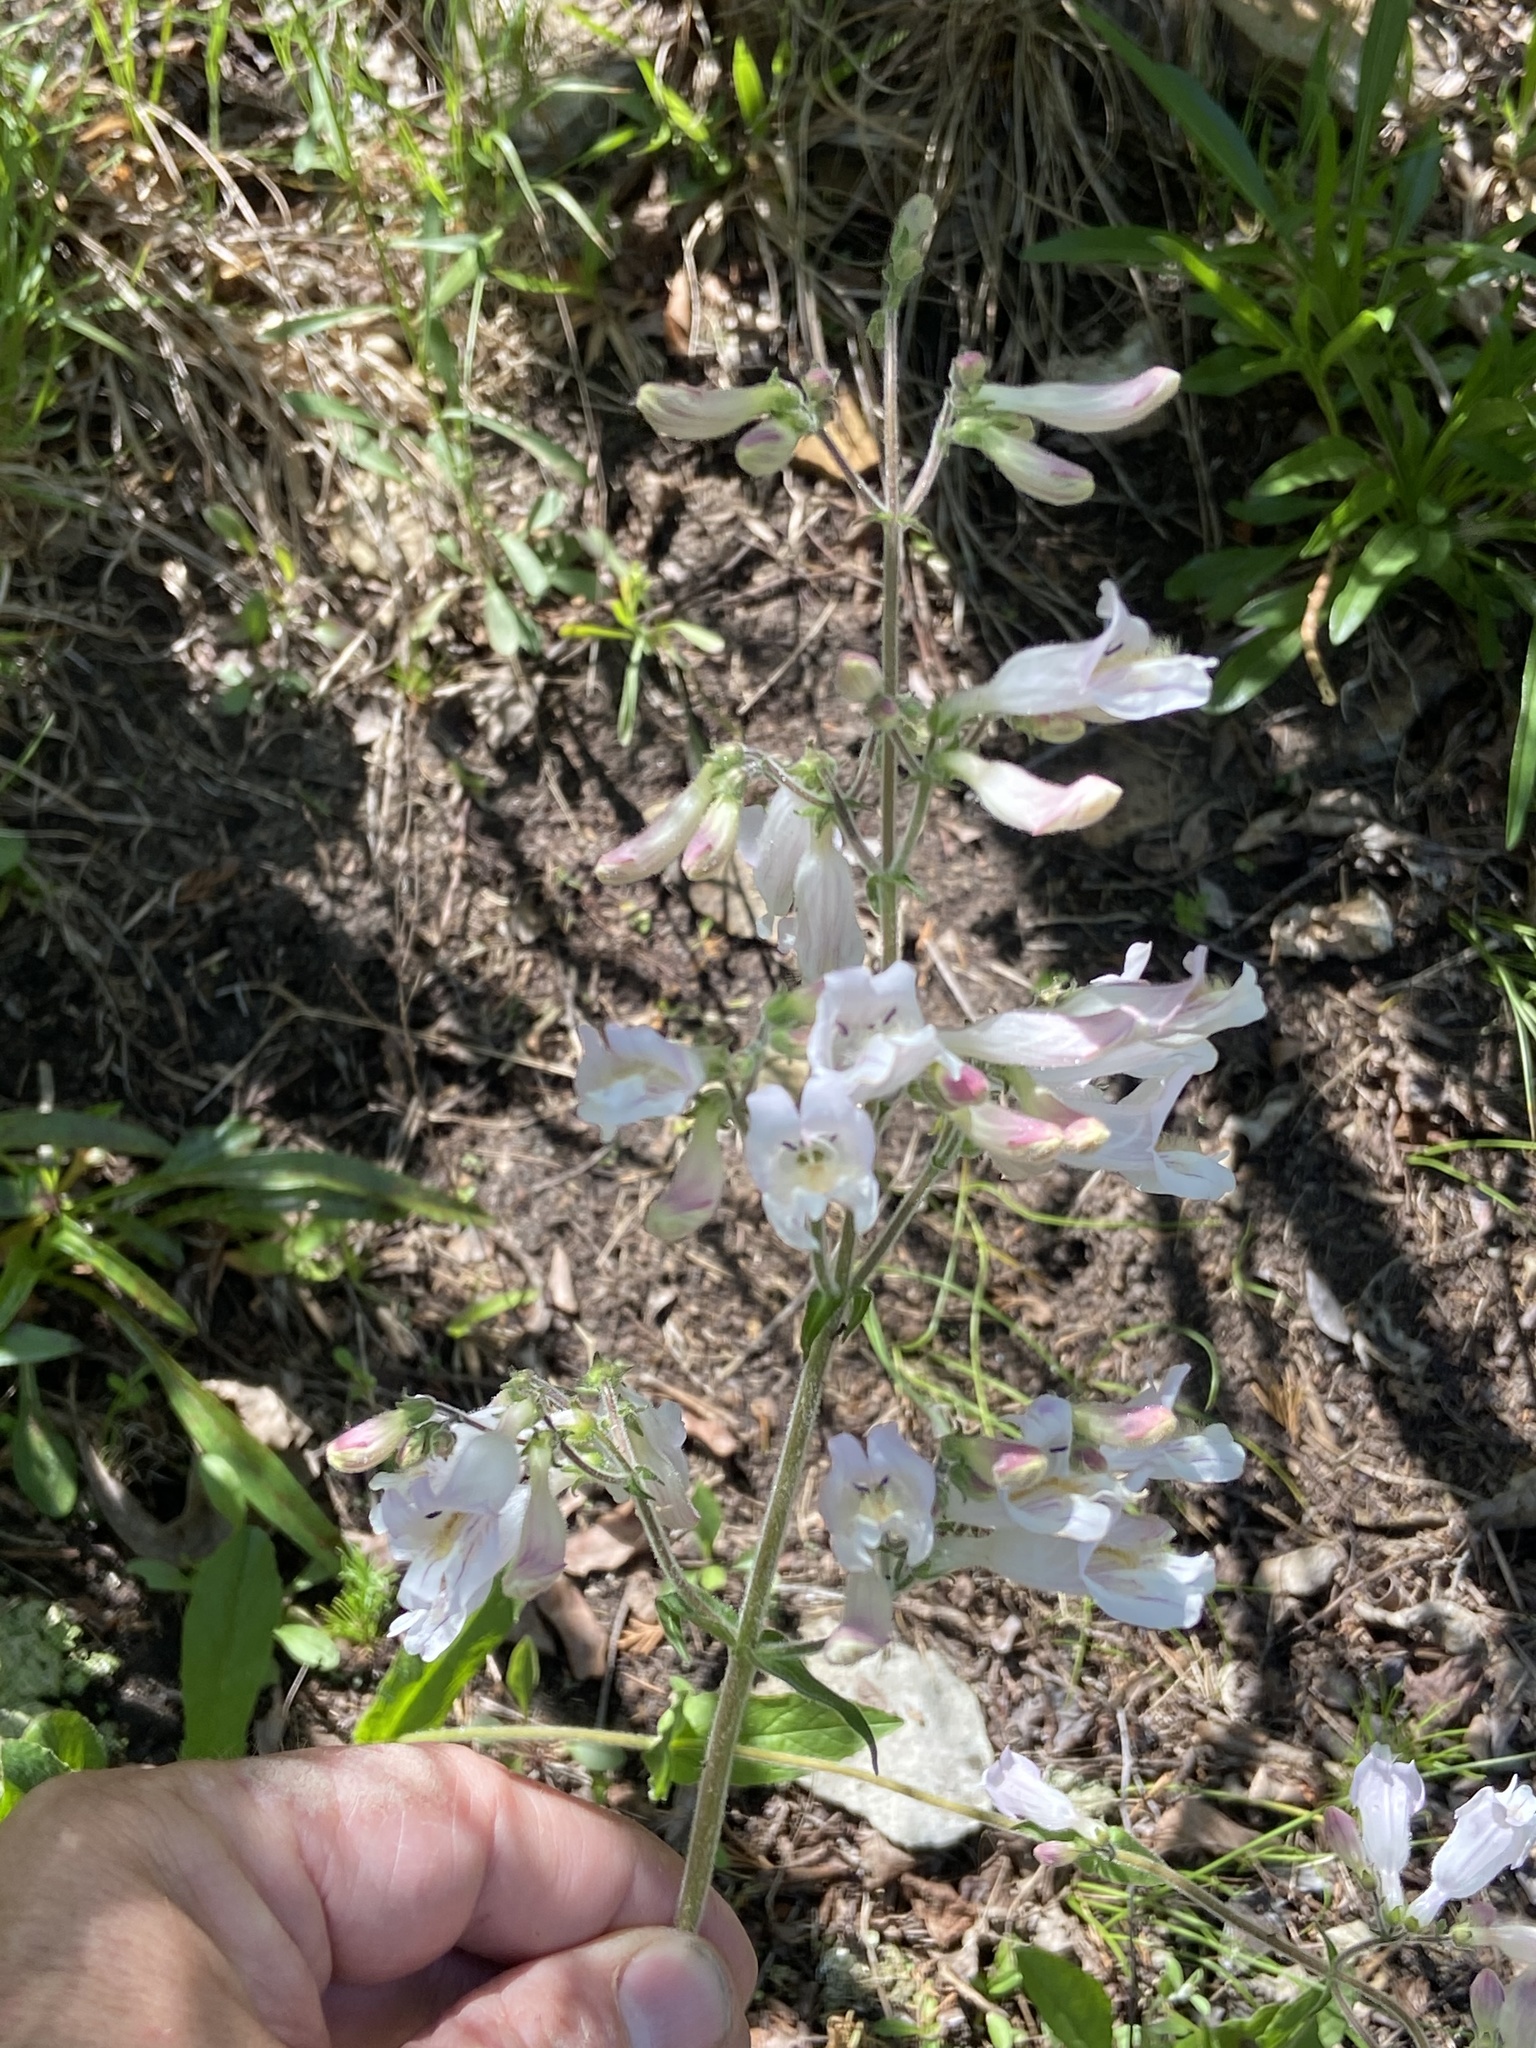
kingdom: Plantae
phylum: Tracheophyta
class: Magnoliopsida
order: Lamiales
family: Plantaginaceae
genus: Penstemon
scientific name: Penstemon canescens
